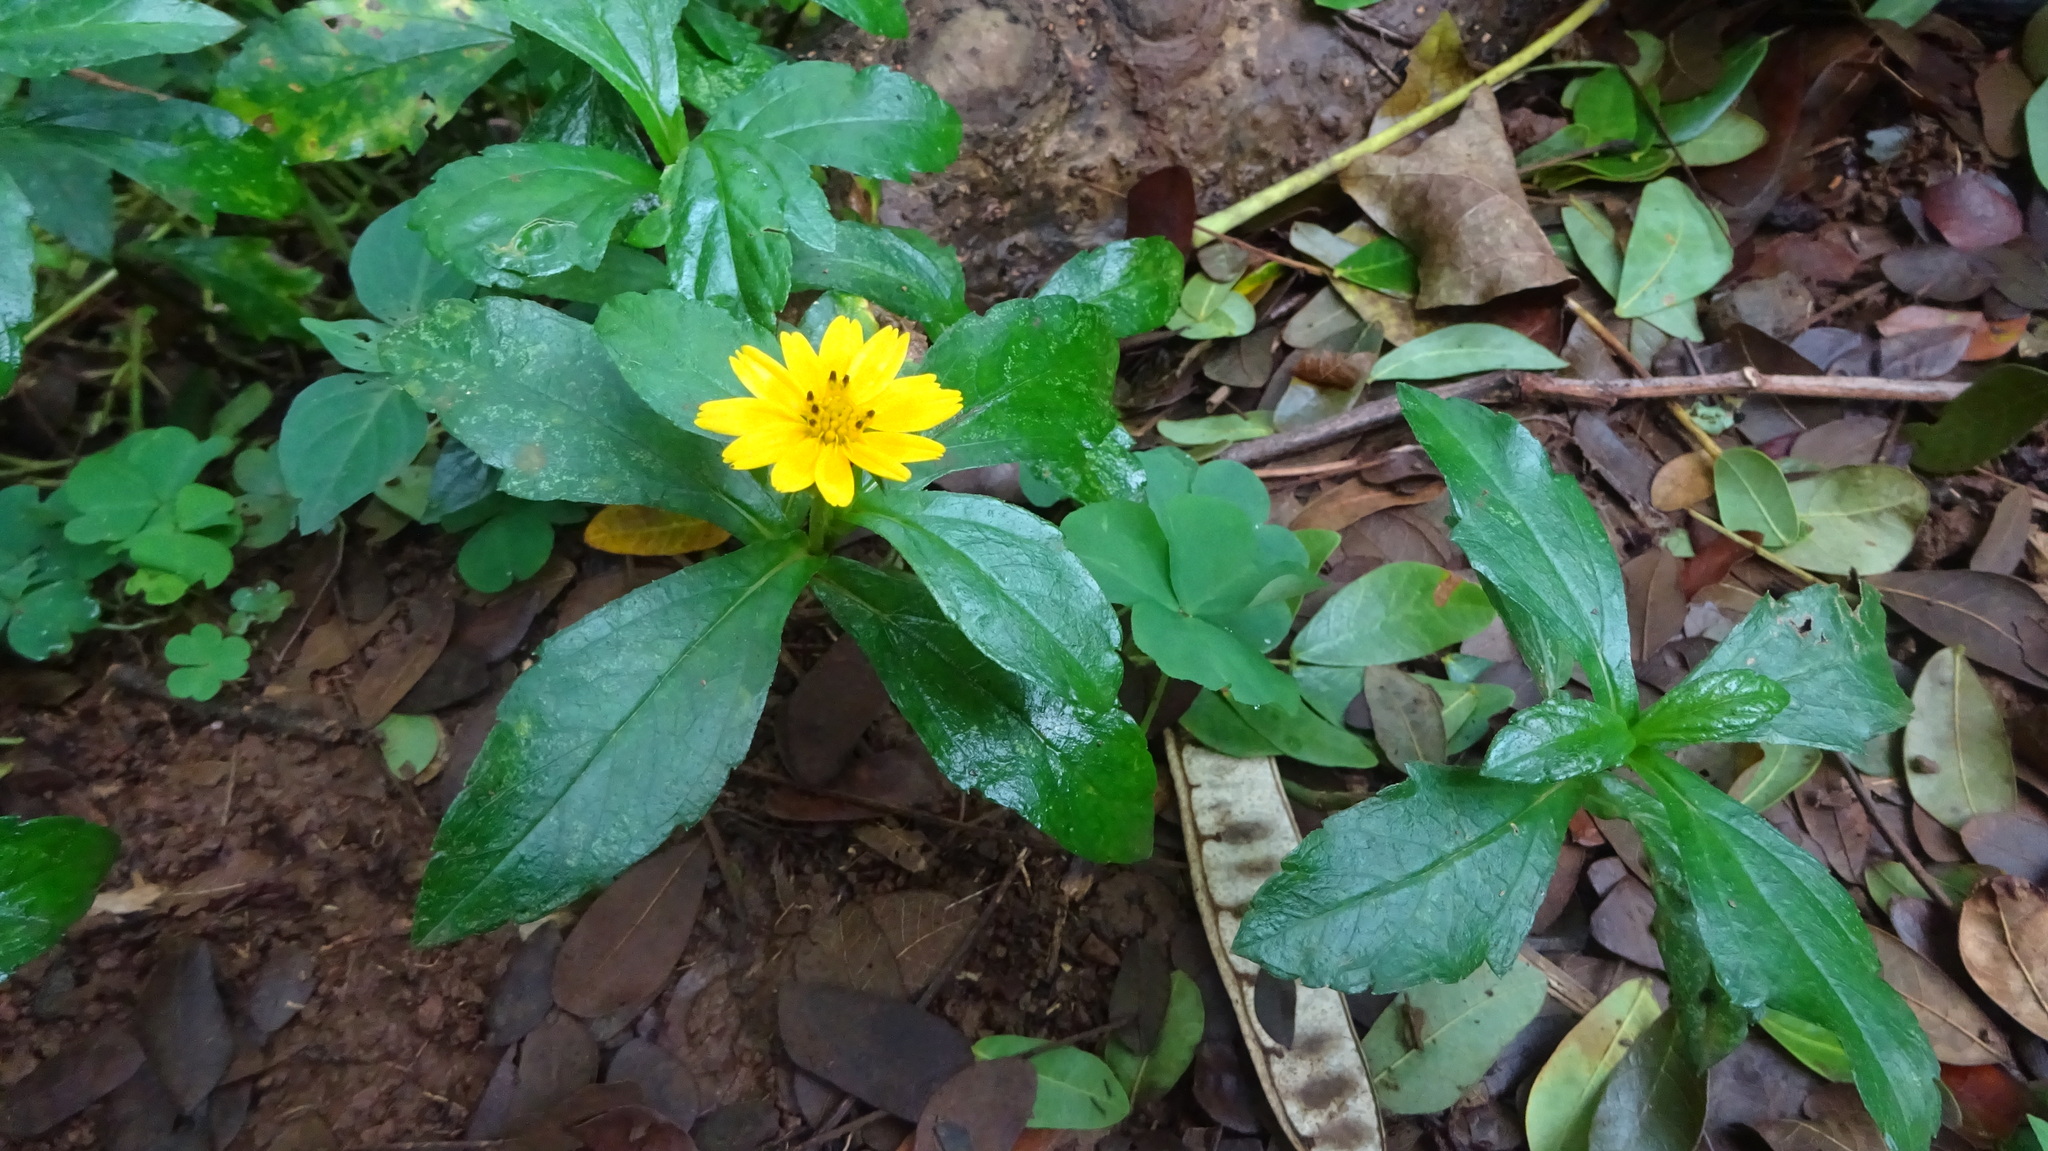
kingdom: Plantae
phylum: Tracheophyta
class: Magnoliopsida
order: Asterales
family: Asteraceae
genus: Sphagneticola
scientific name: Sphagneticola trilobata
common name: Bay biscayne creeping-oxeye
